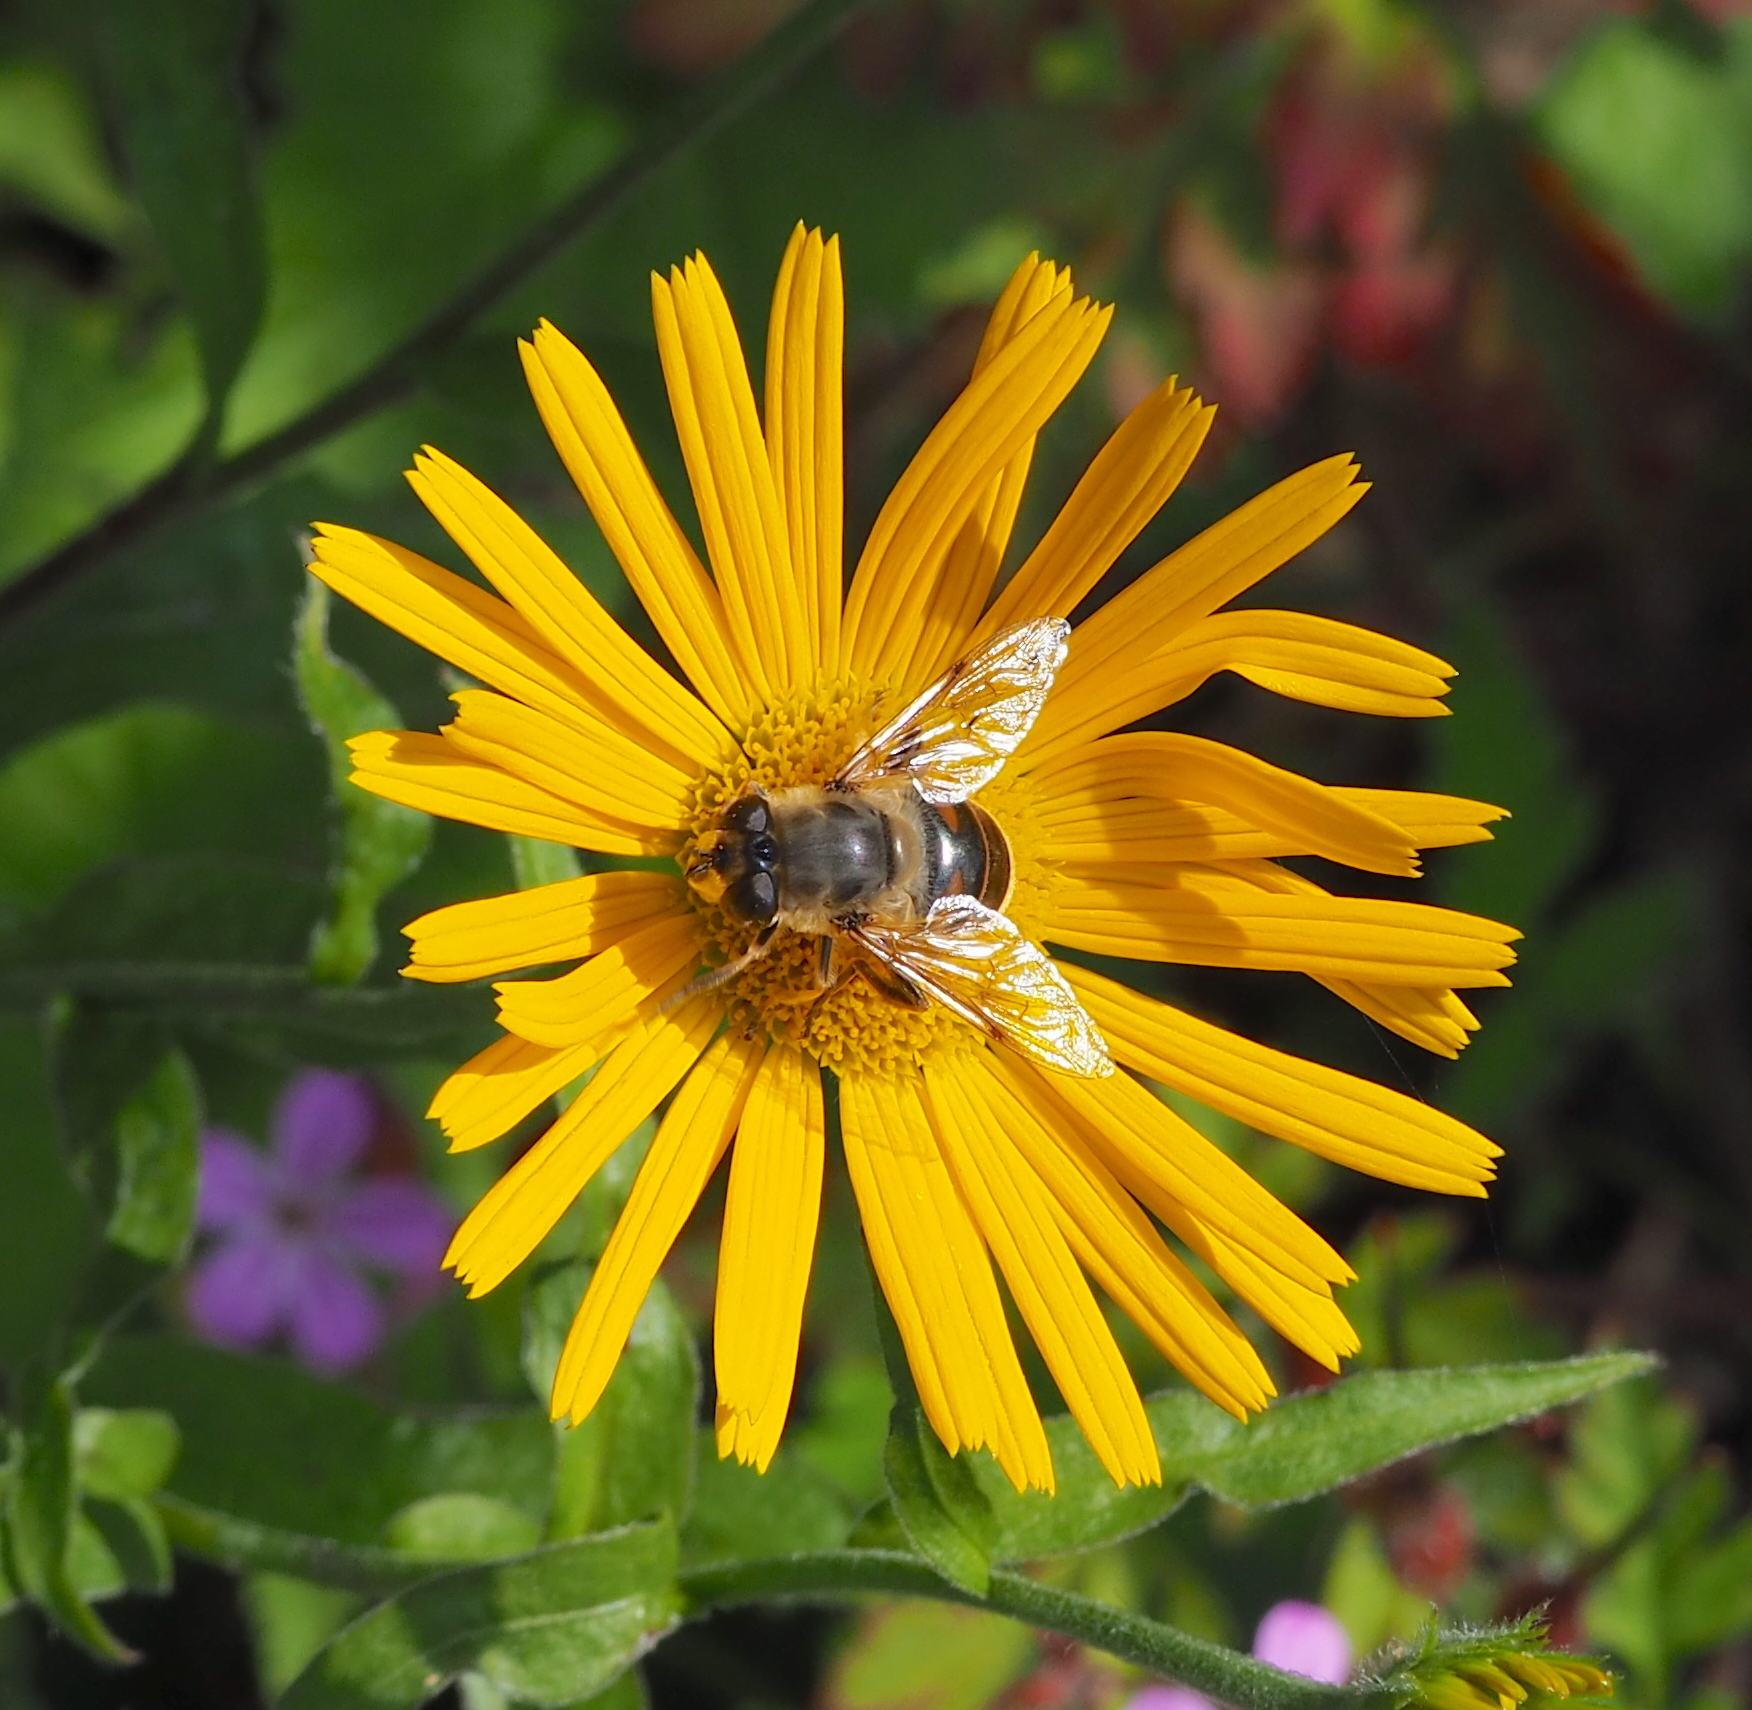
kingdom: Animalia
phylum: Arthropoda
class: Insecta
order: Diptera
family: Syrphidae
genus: Eristalis
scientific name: Eristalis tenax
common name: Drone fly
